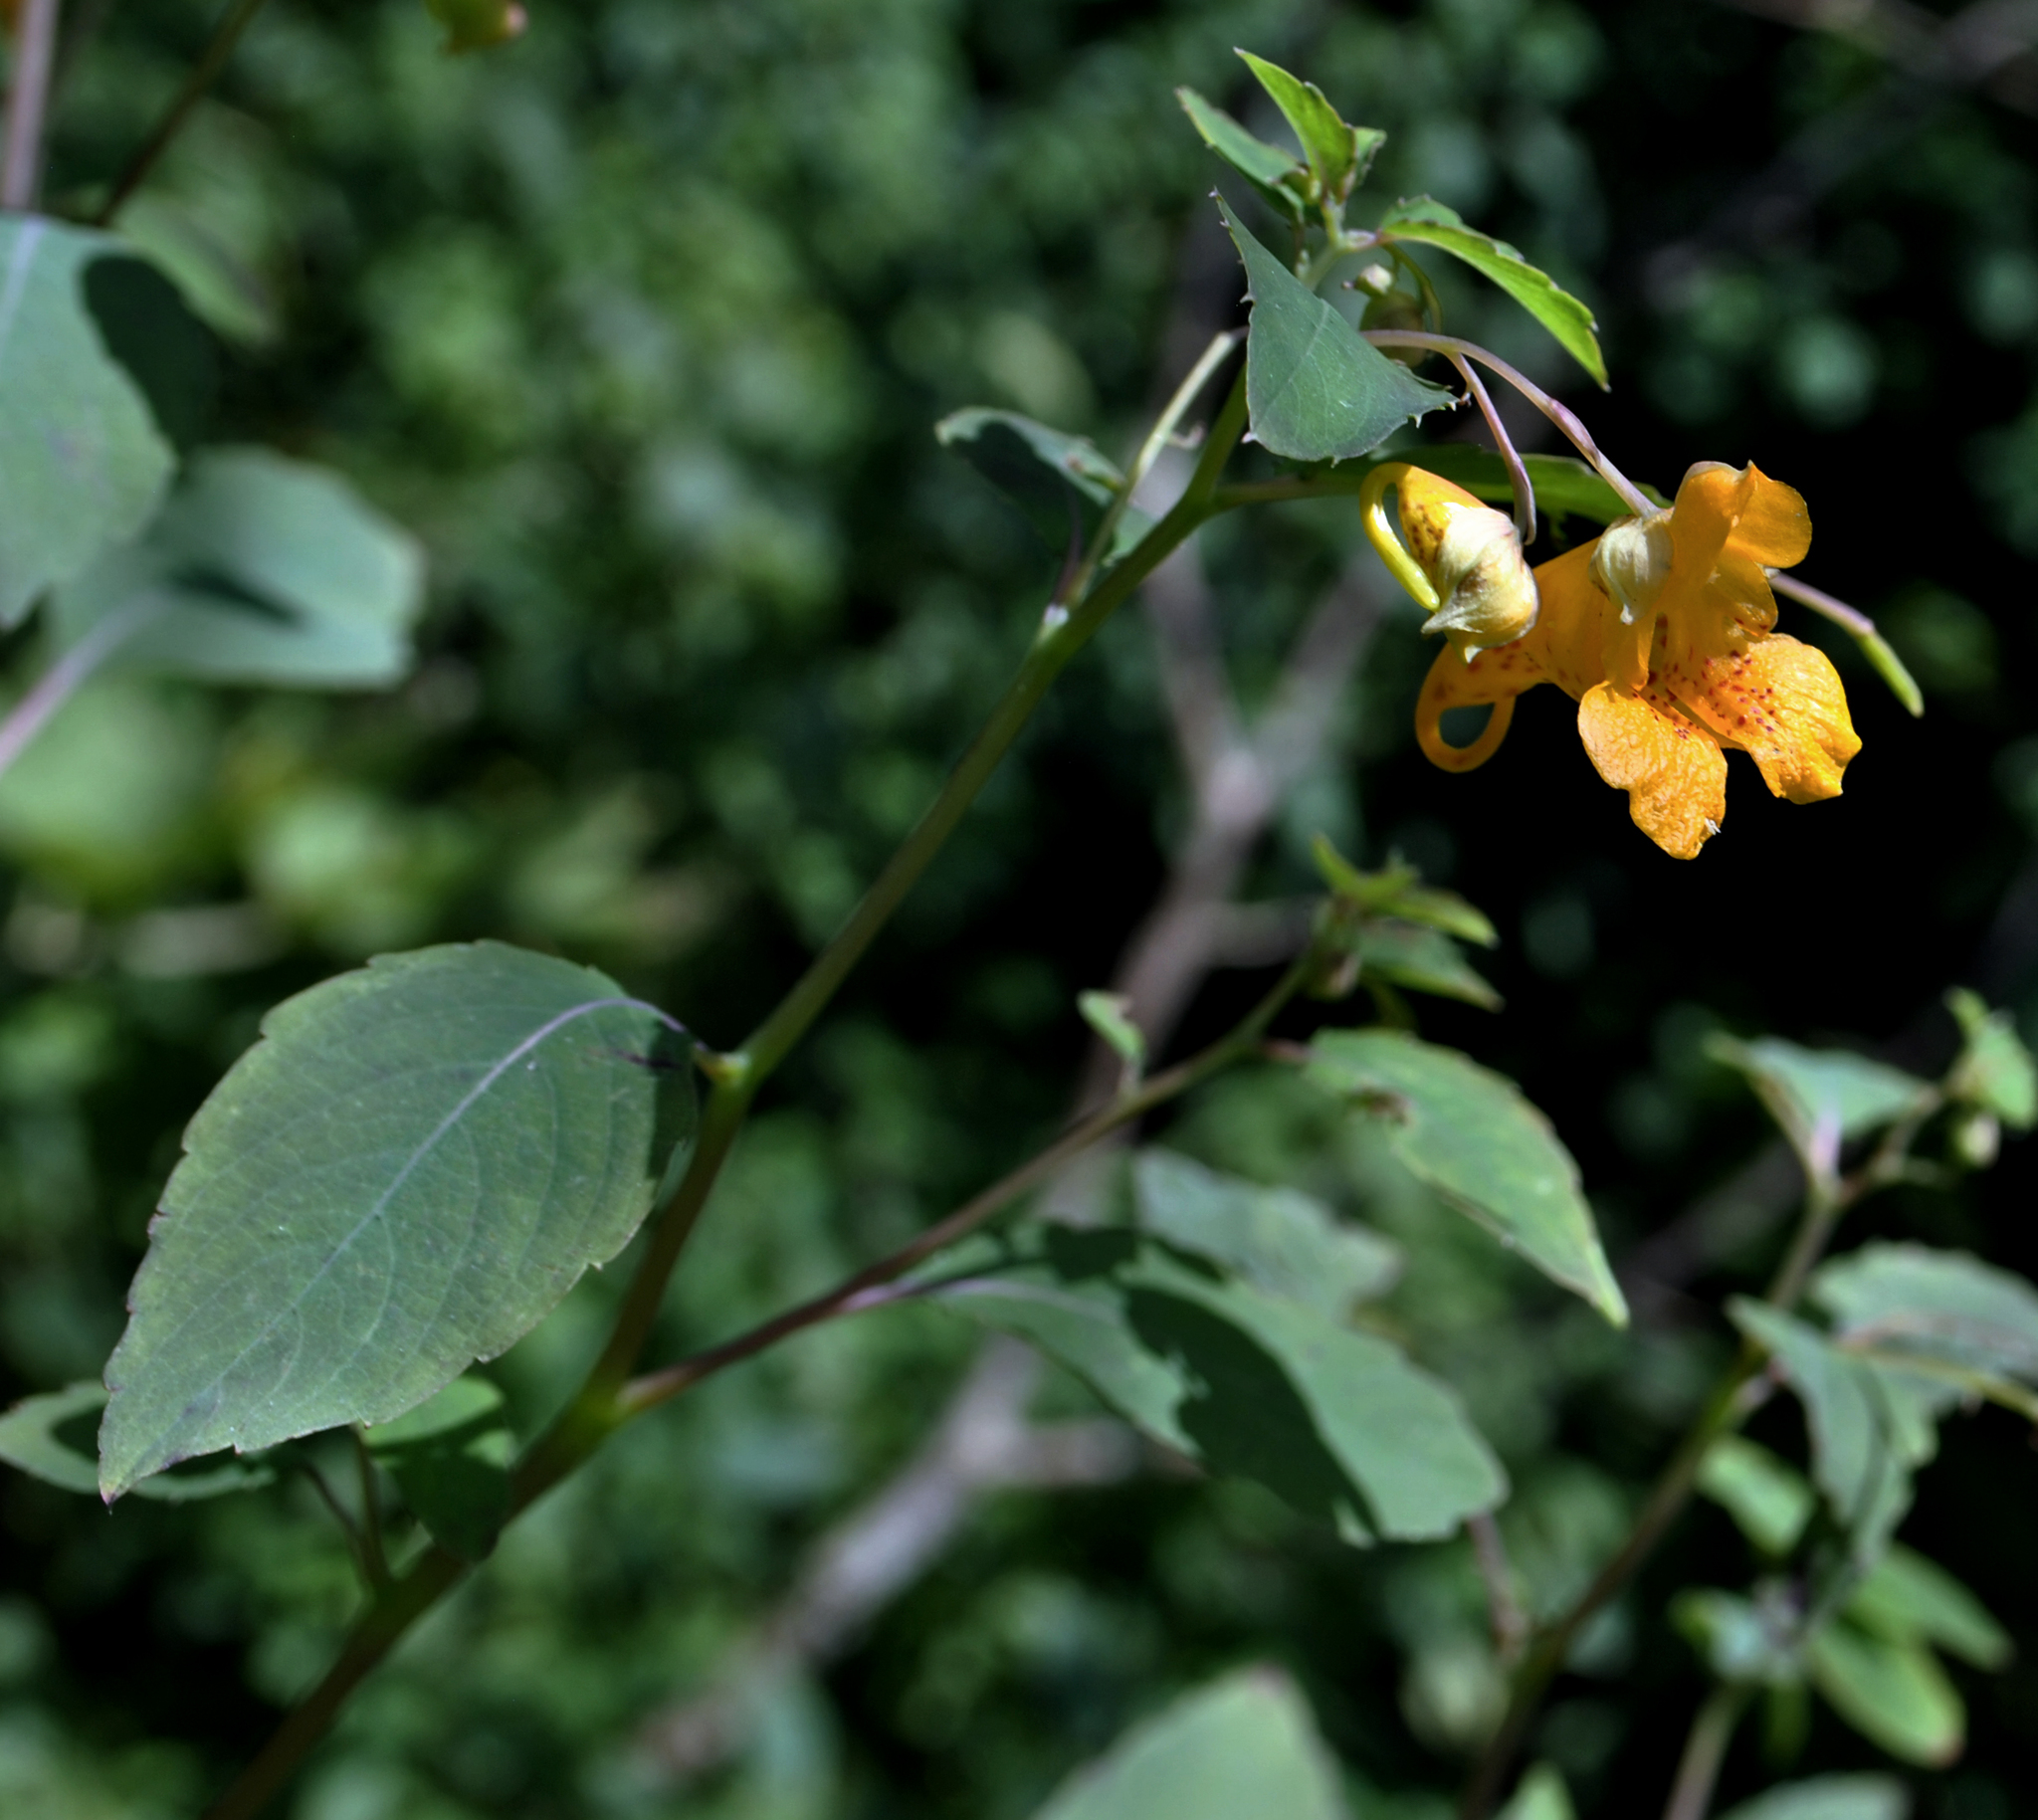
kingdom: Plantae
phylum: Tracheophyta
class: Magnoliopsida
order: Ericales
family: Balsaminaceae
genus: Impatiens
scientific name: Impatiens capensis
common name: Orange balsam
